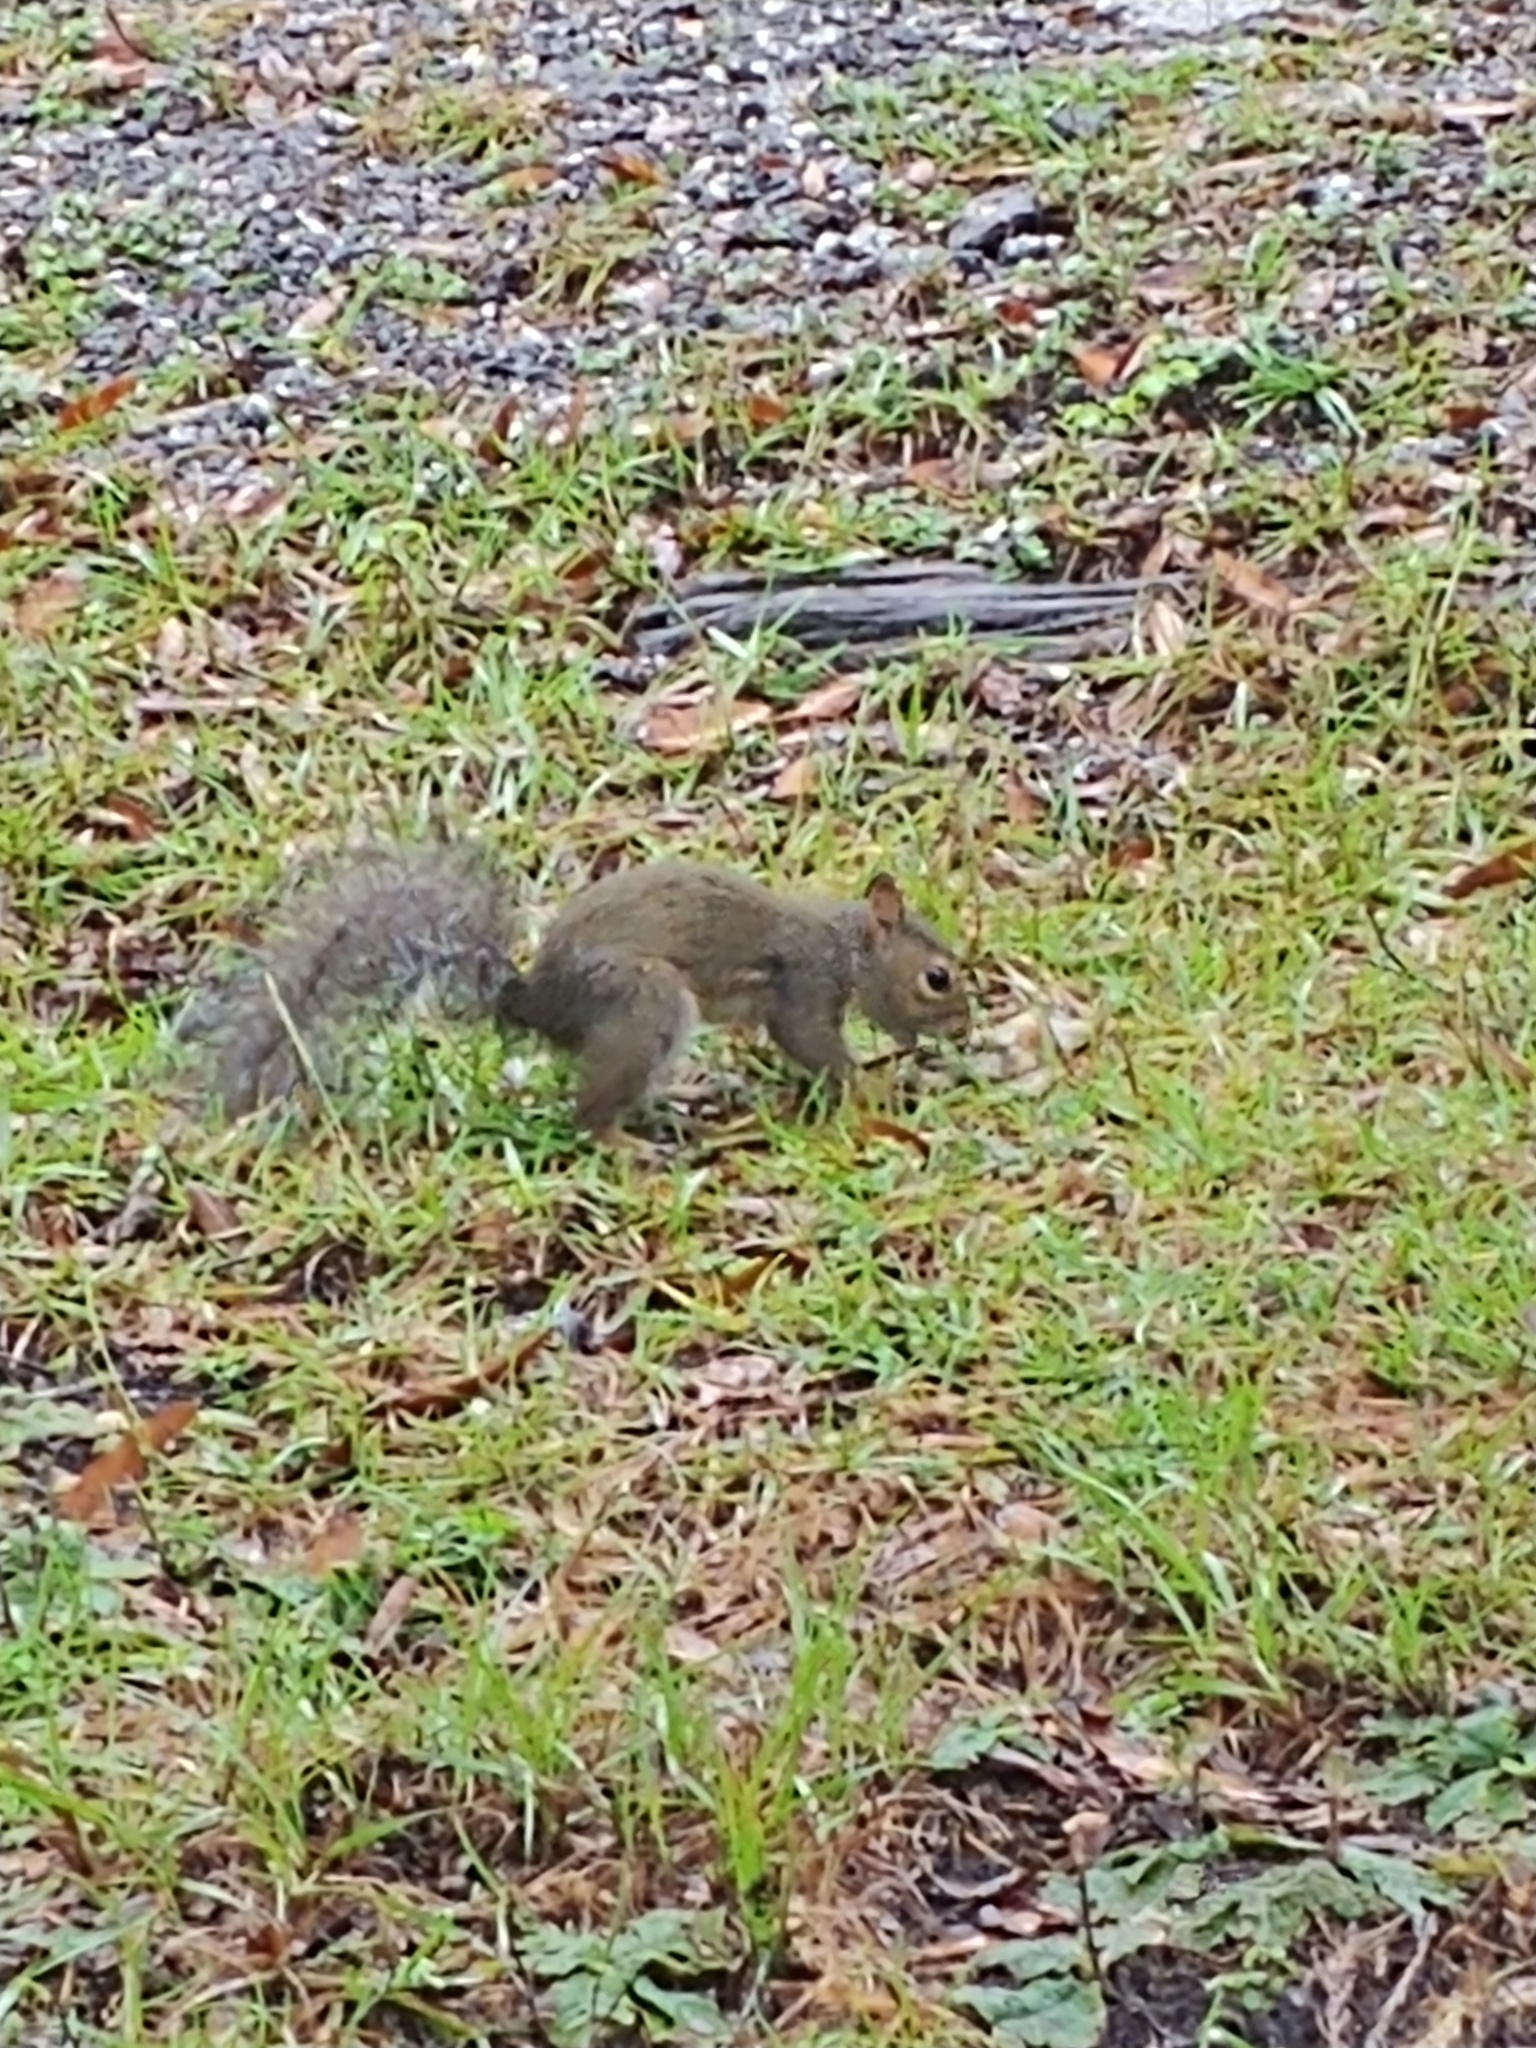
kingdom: Animalia
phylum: Chordata
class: Mammalia
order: Rodentia
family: Sciuridae
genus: Sciurus
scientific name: Sciurus carolinensis
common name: Eastern gray squirrel
